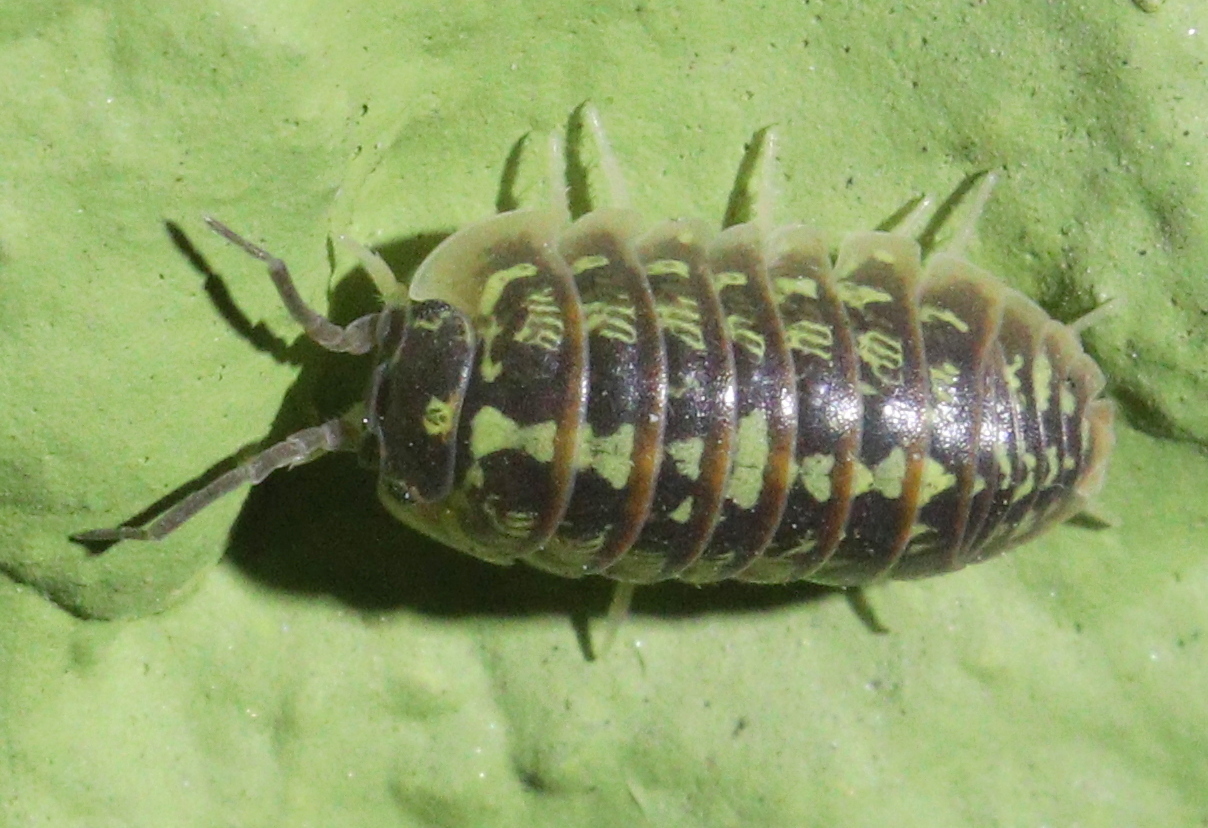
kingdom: Animalia
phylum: Arthropoda
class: Malacostraca
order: Isopoda
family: Armadillidiidae
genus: Armadillidium
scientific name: Armadillidium versicolor
